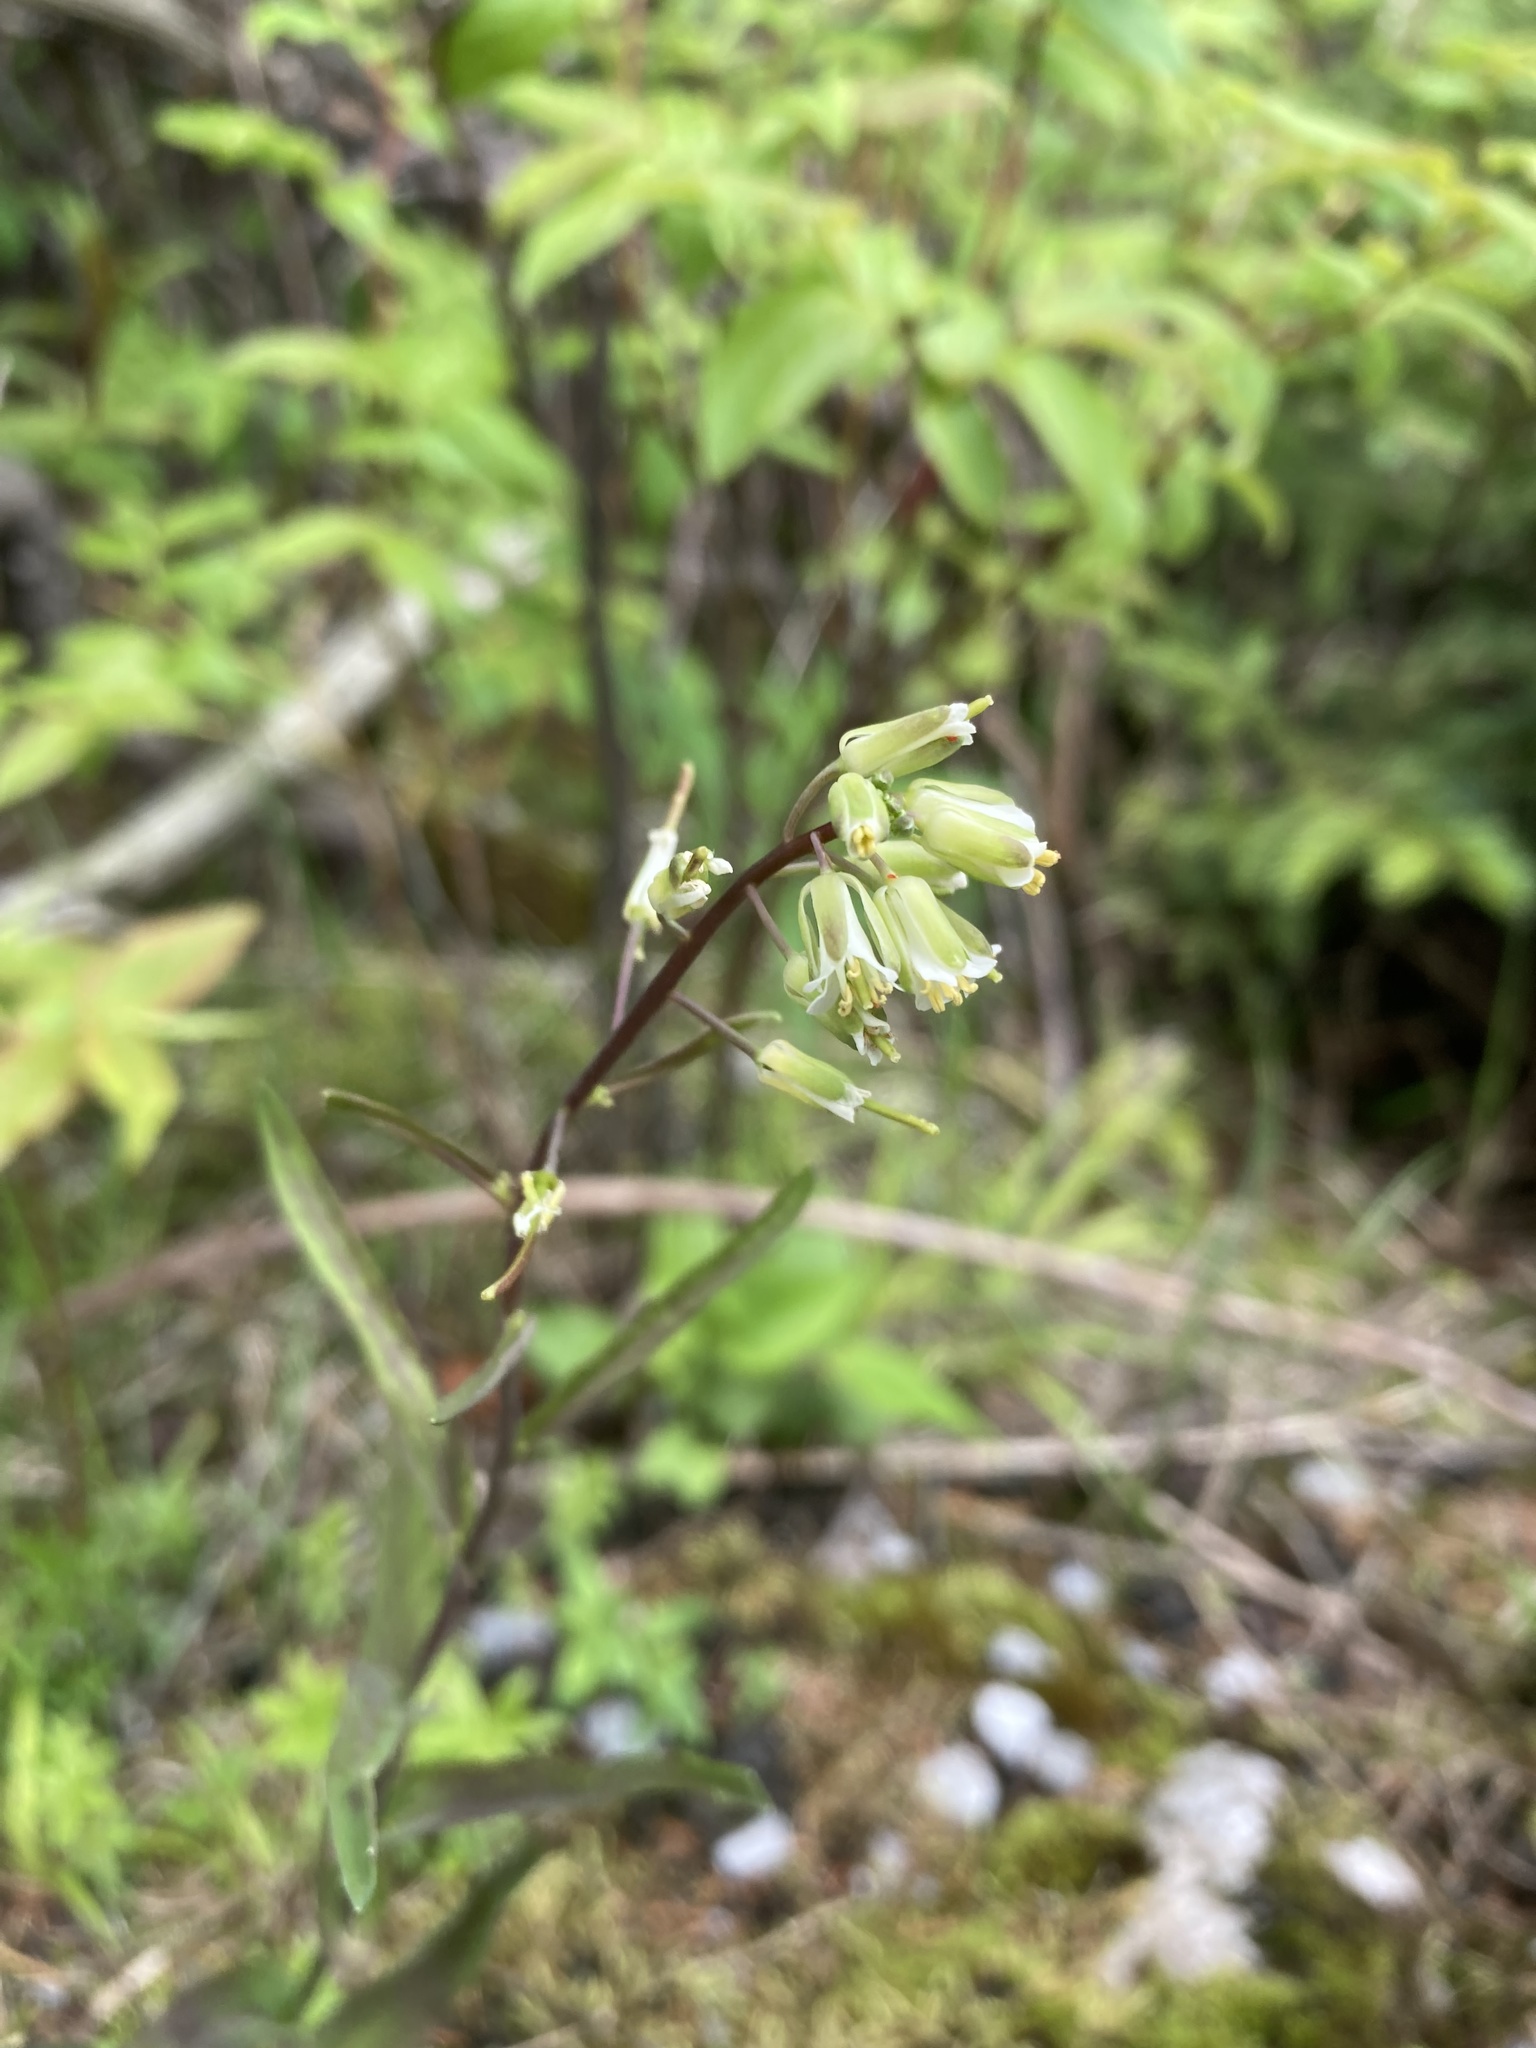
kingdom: Plantae
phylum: Tracheophyta
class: Magnoliopsida
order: Brassicales
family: Brassicaceae
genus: Borodinia
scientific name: Borodinia laevigata
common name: Smooth rockcress
